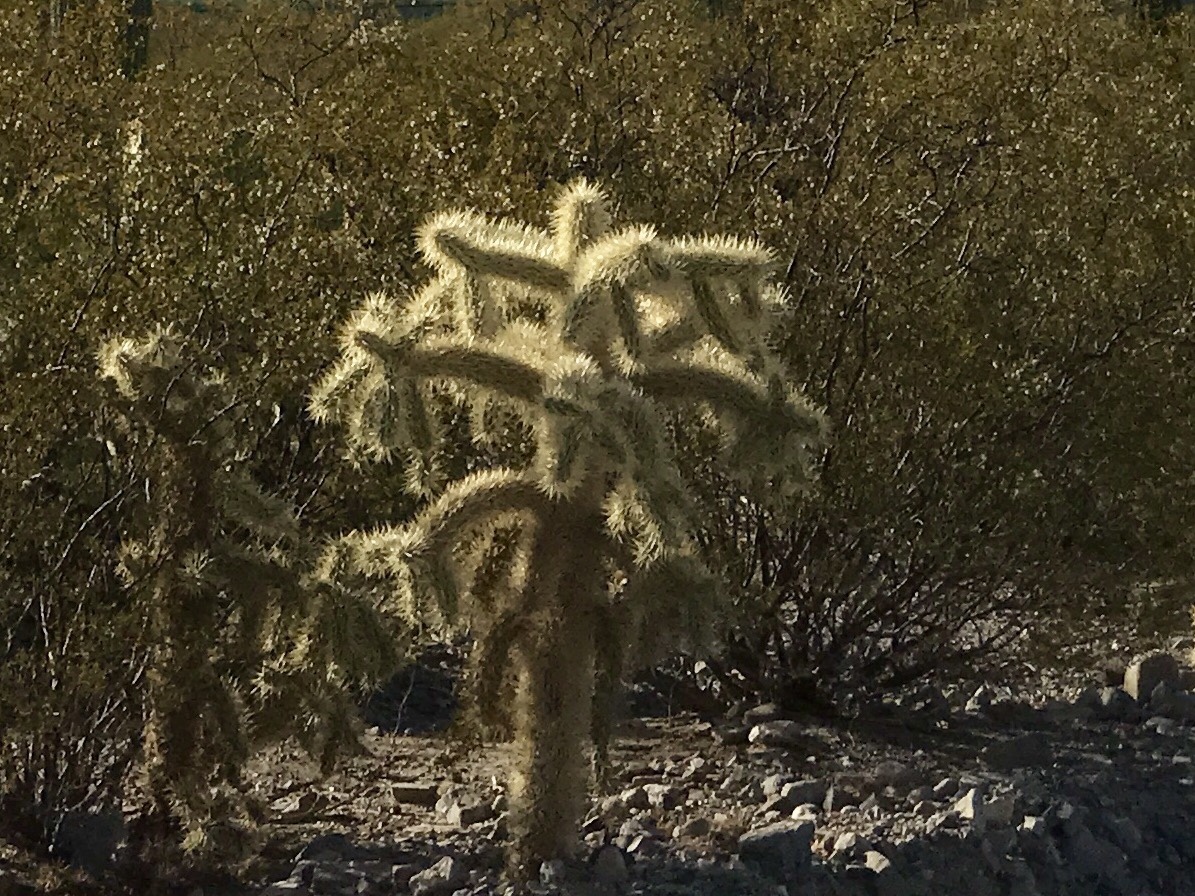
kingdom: Plantae
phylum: Tracheophyta
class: Magnoliopsida
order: Caryophyllales
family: Cactaceae
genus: Cylindropuntia
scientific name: Cylindropuntia fulgida
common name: Jumping cholla
